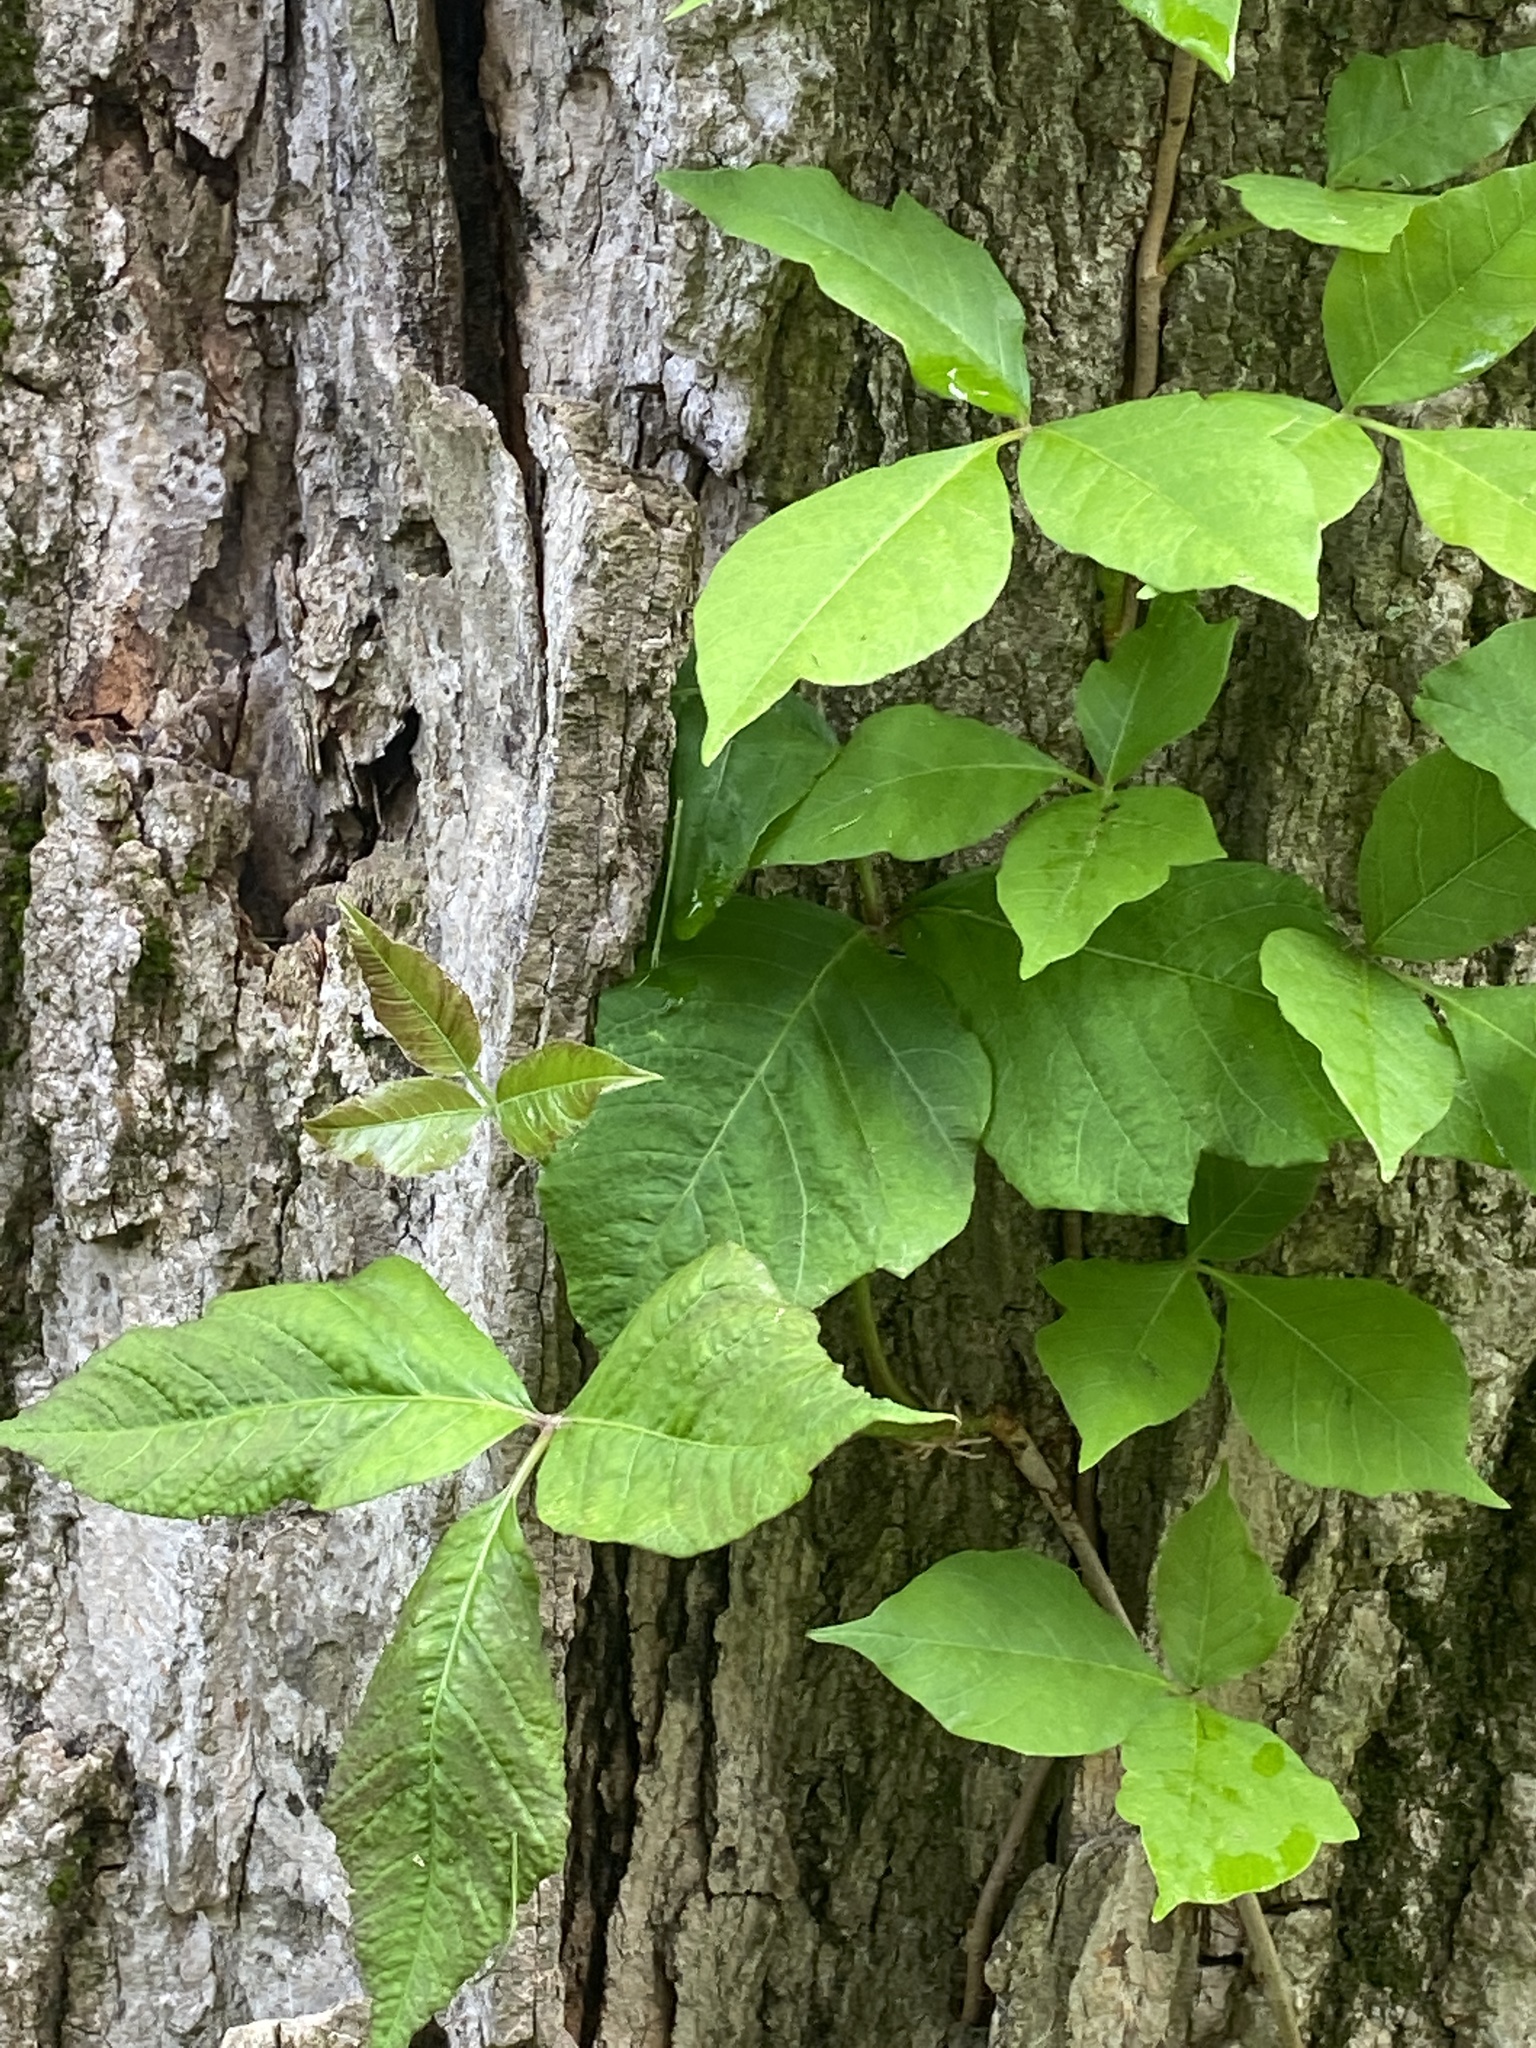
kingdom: Plantae
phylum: Tracheophyta
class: Magnoliopsida
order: Sapindales
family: Anacardiaceae
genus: Toxicodendron
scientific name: Toxicodendron radicans
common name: Poison ivy
